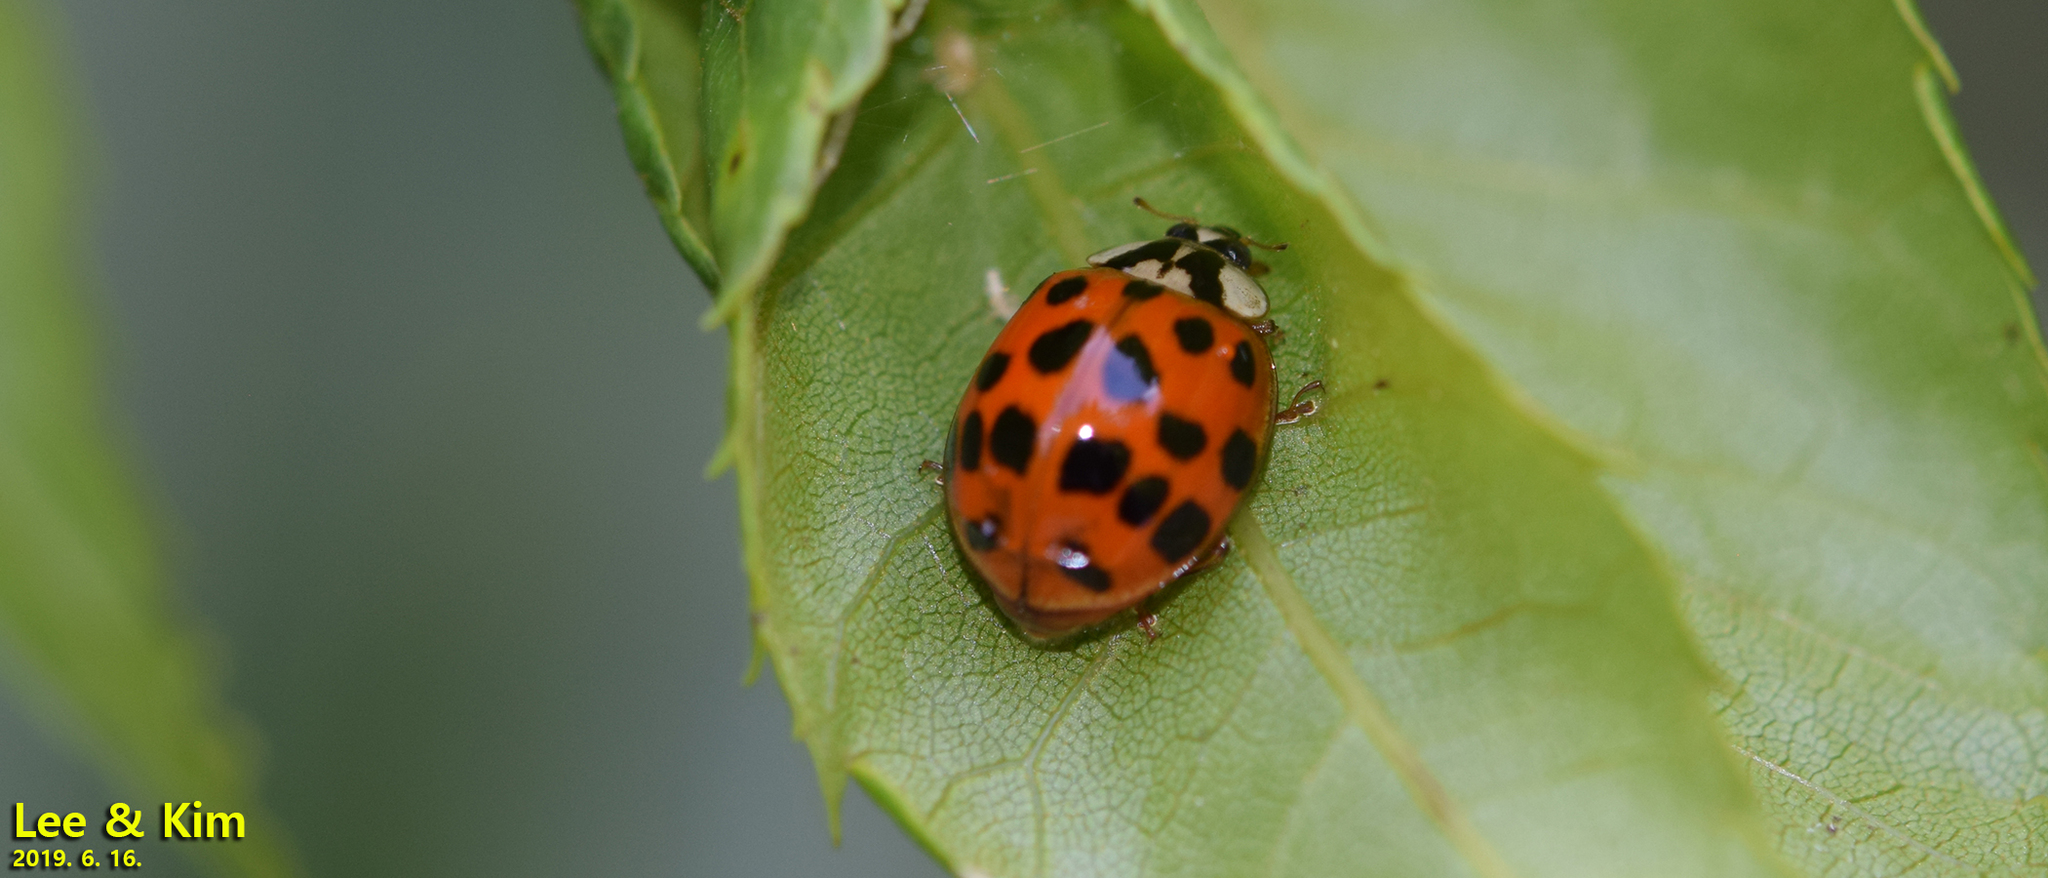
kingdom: Animalia
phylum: Arthropoda
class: Insecta
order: Coleoptera
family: Coccinellidae
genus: Harmonia
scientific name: Harmonia axyridis
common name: Harlequin ladybird
